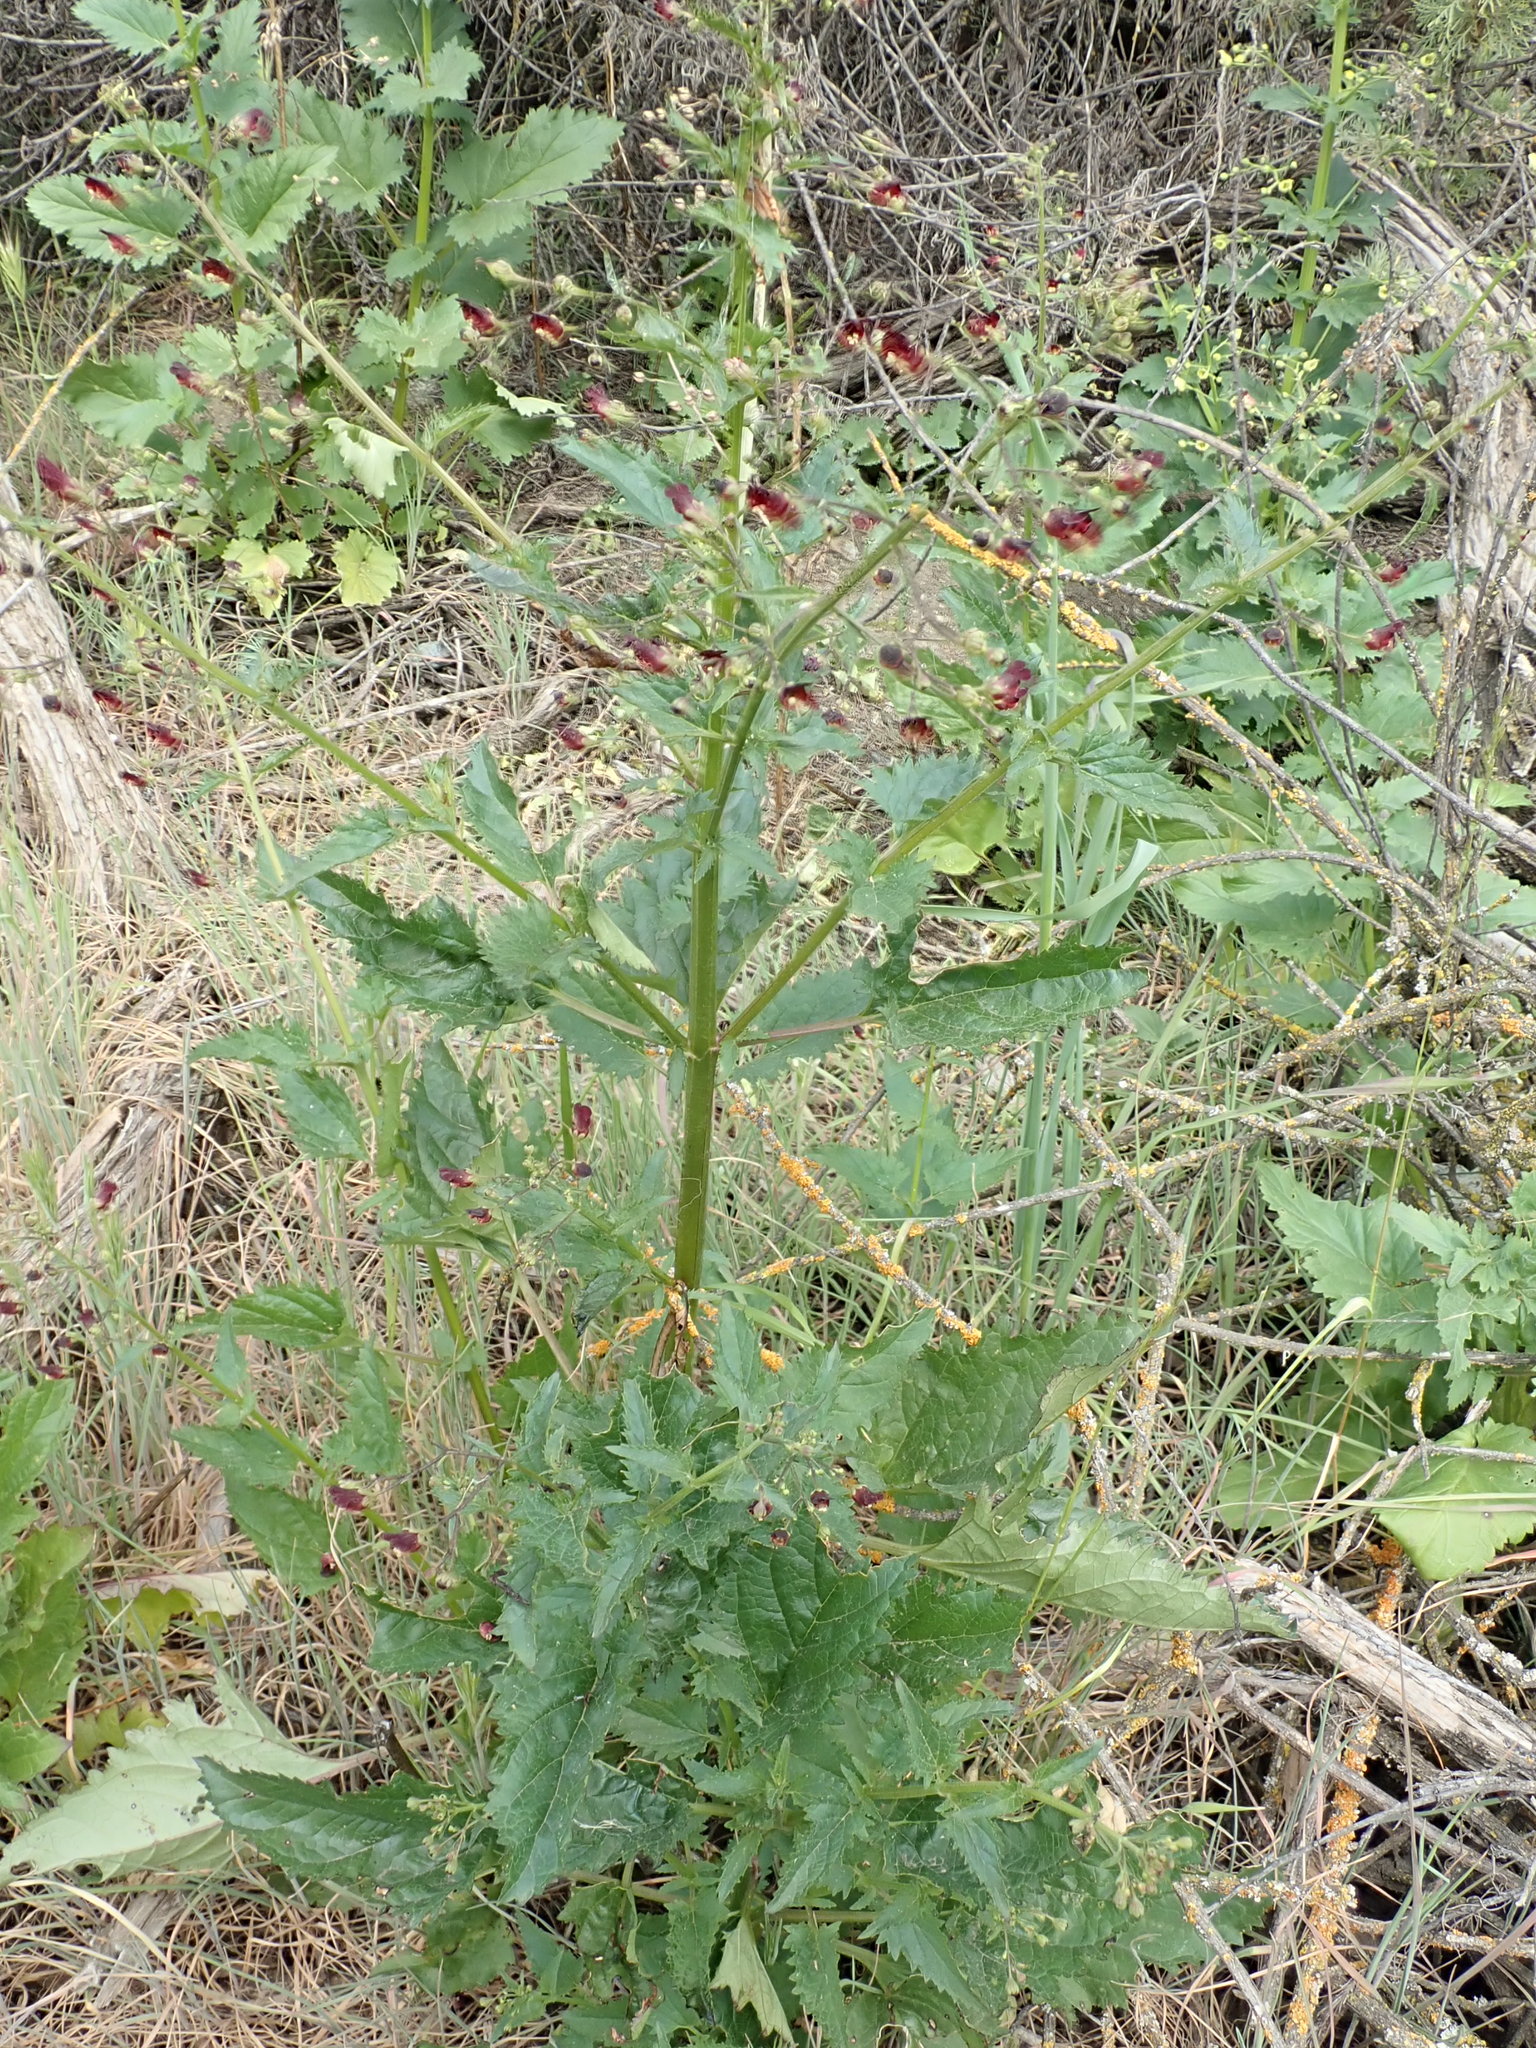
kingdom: Plantae
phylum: Tracheophyta
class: Magnoliopsida
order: Lamiales
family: Scrophulariaceae
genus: Scrophularia
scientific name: Scrophularia californica
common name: California figwort
